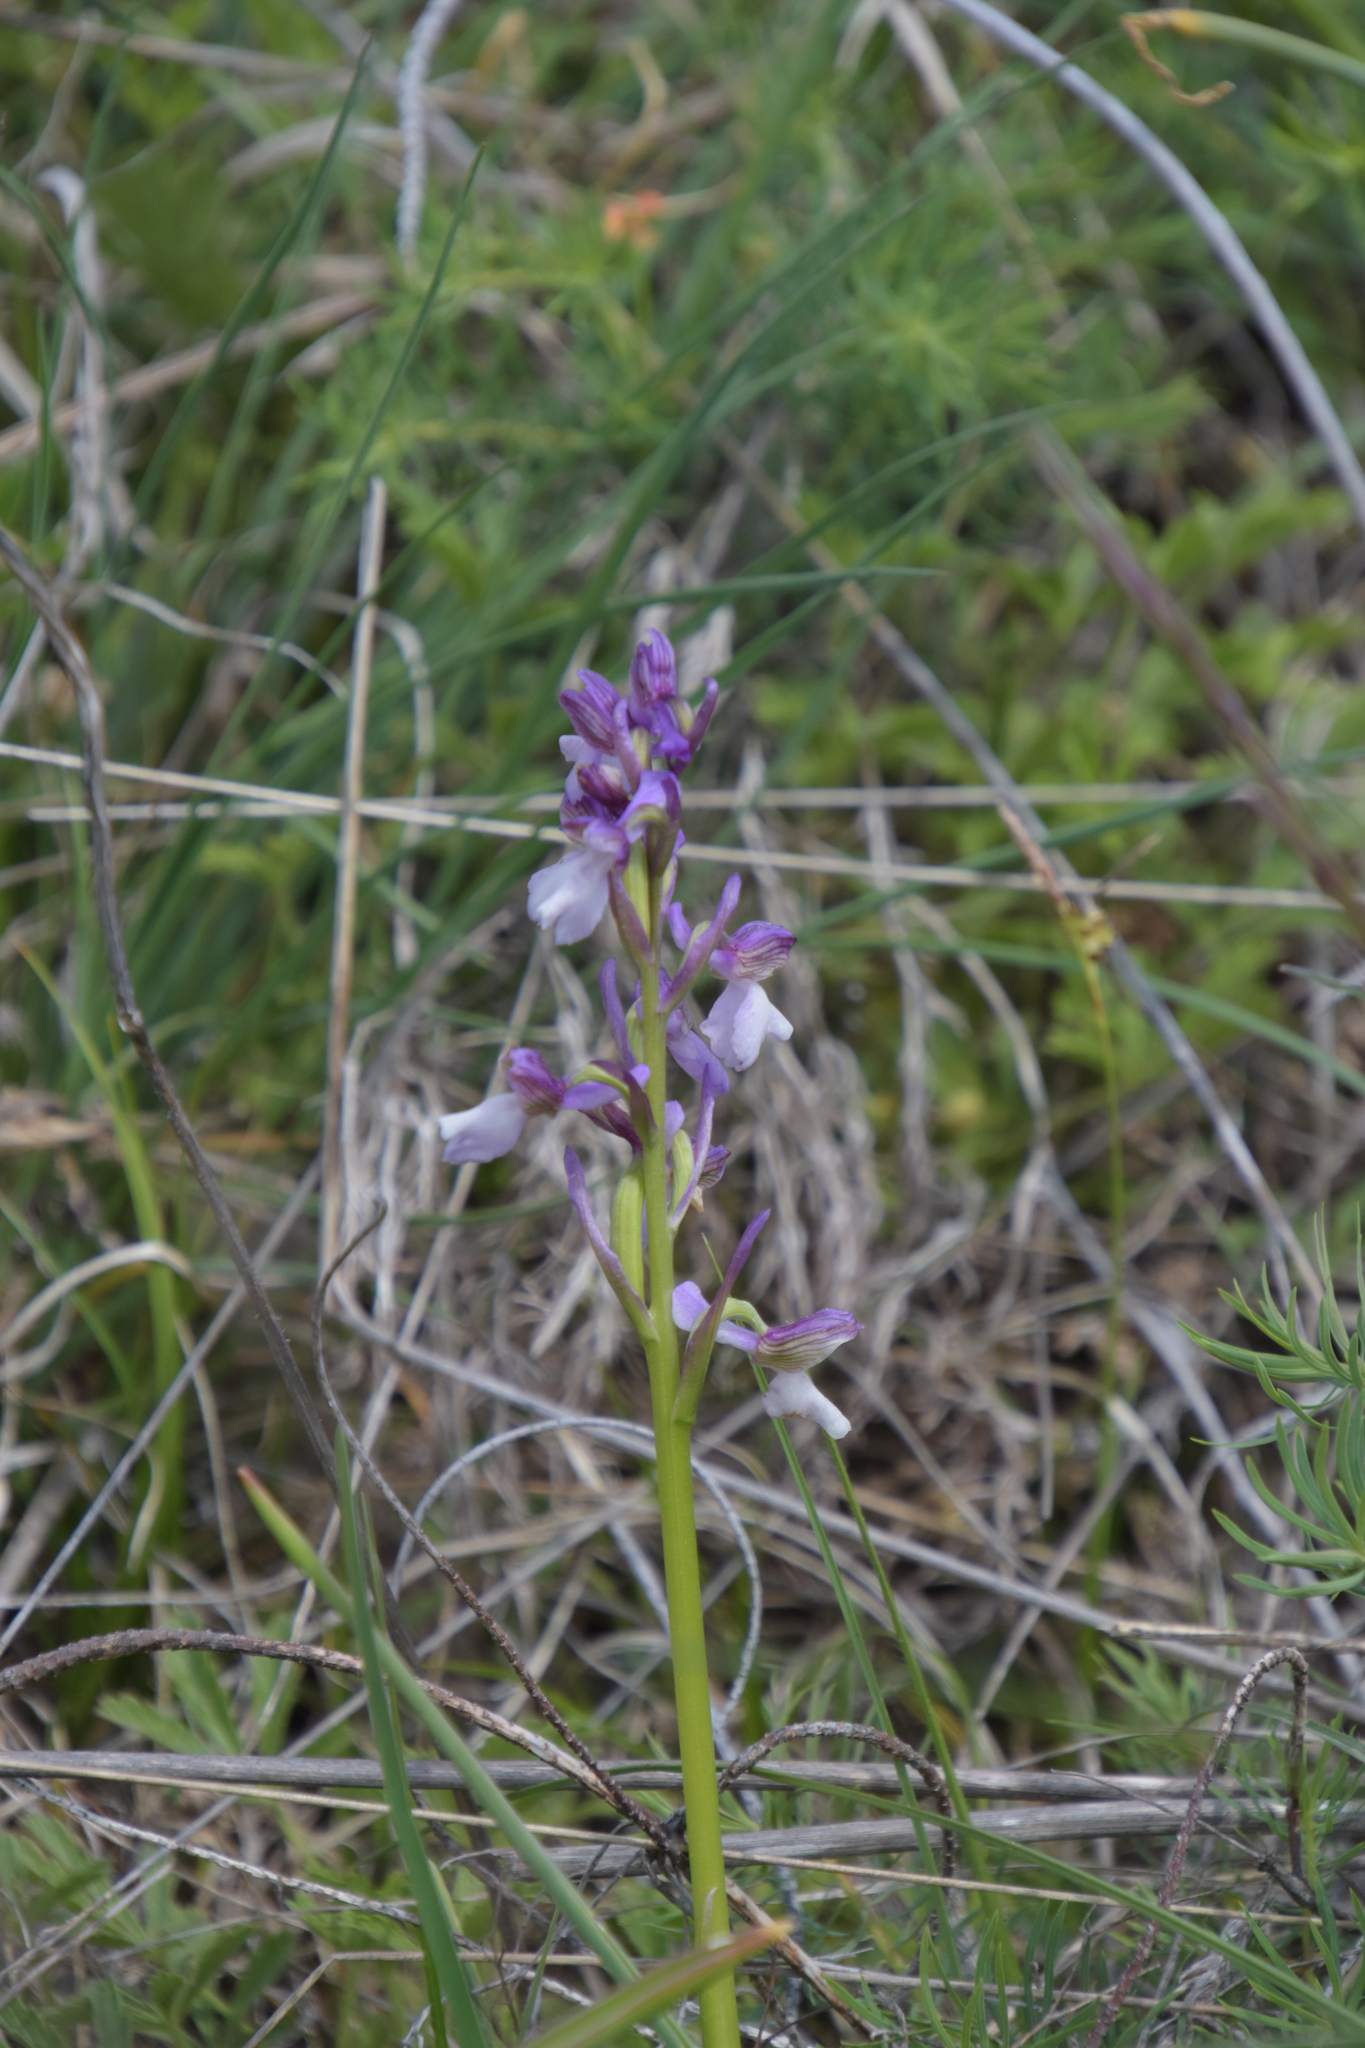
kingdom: Plantae
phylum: Tracheophyta
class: Liliopsida
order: Asparagales
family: Orchidaceae
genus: Anacamptis
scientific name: Anacamptis morio
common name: Green-winged orchid
